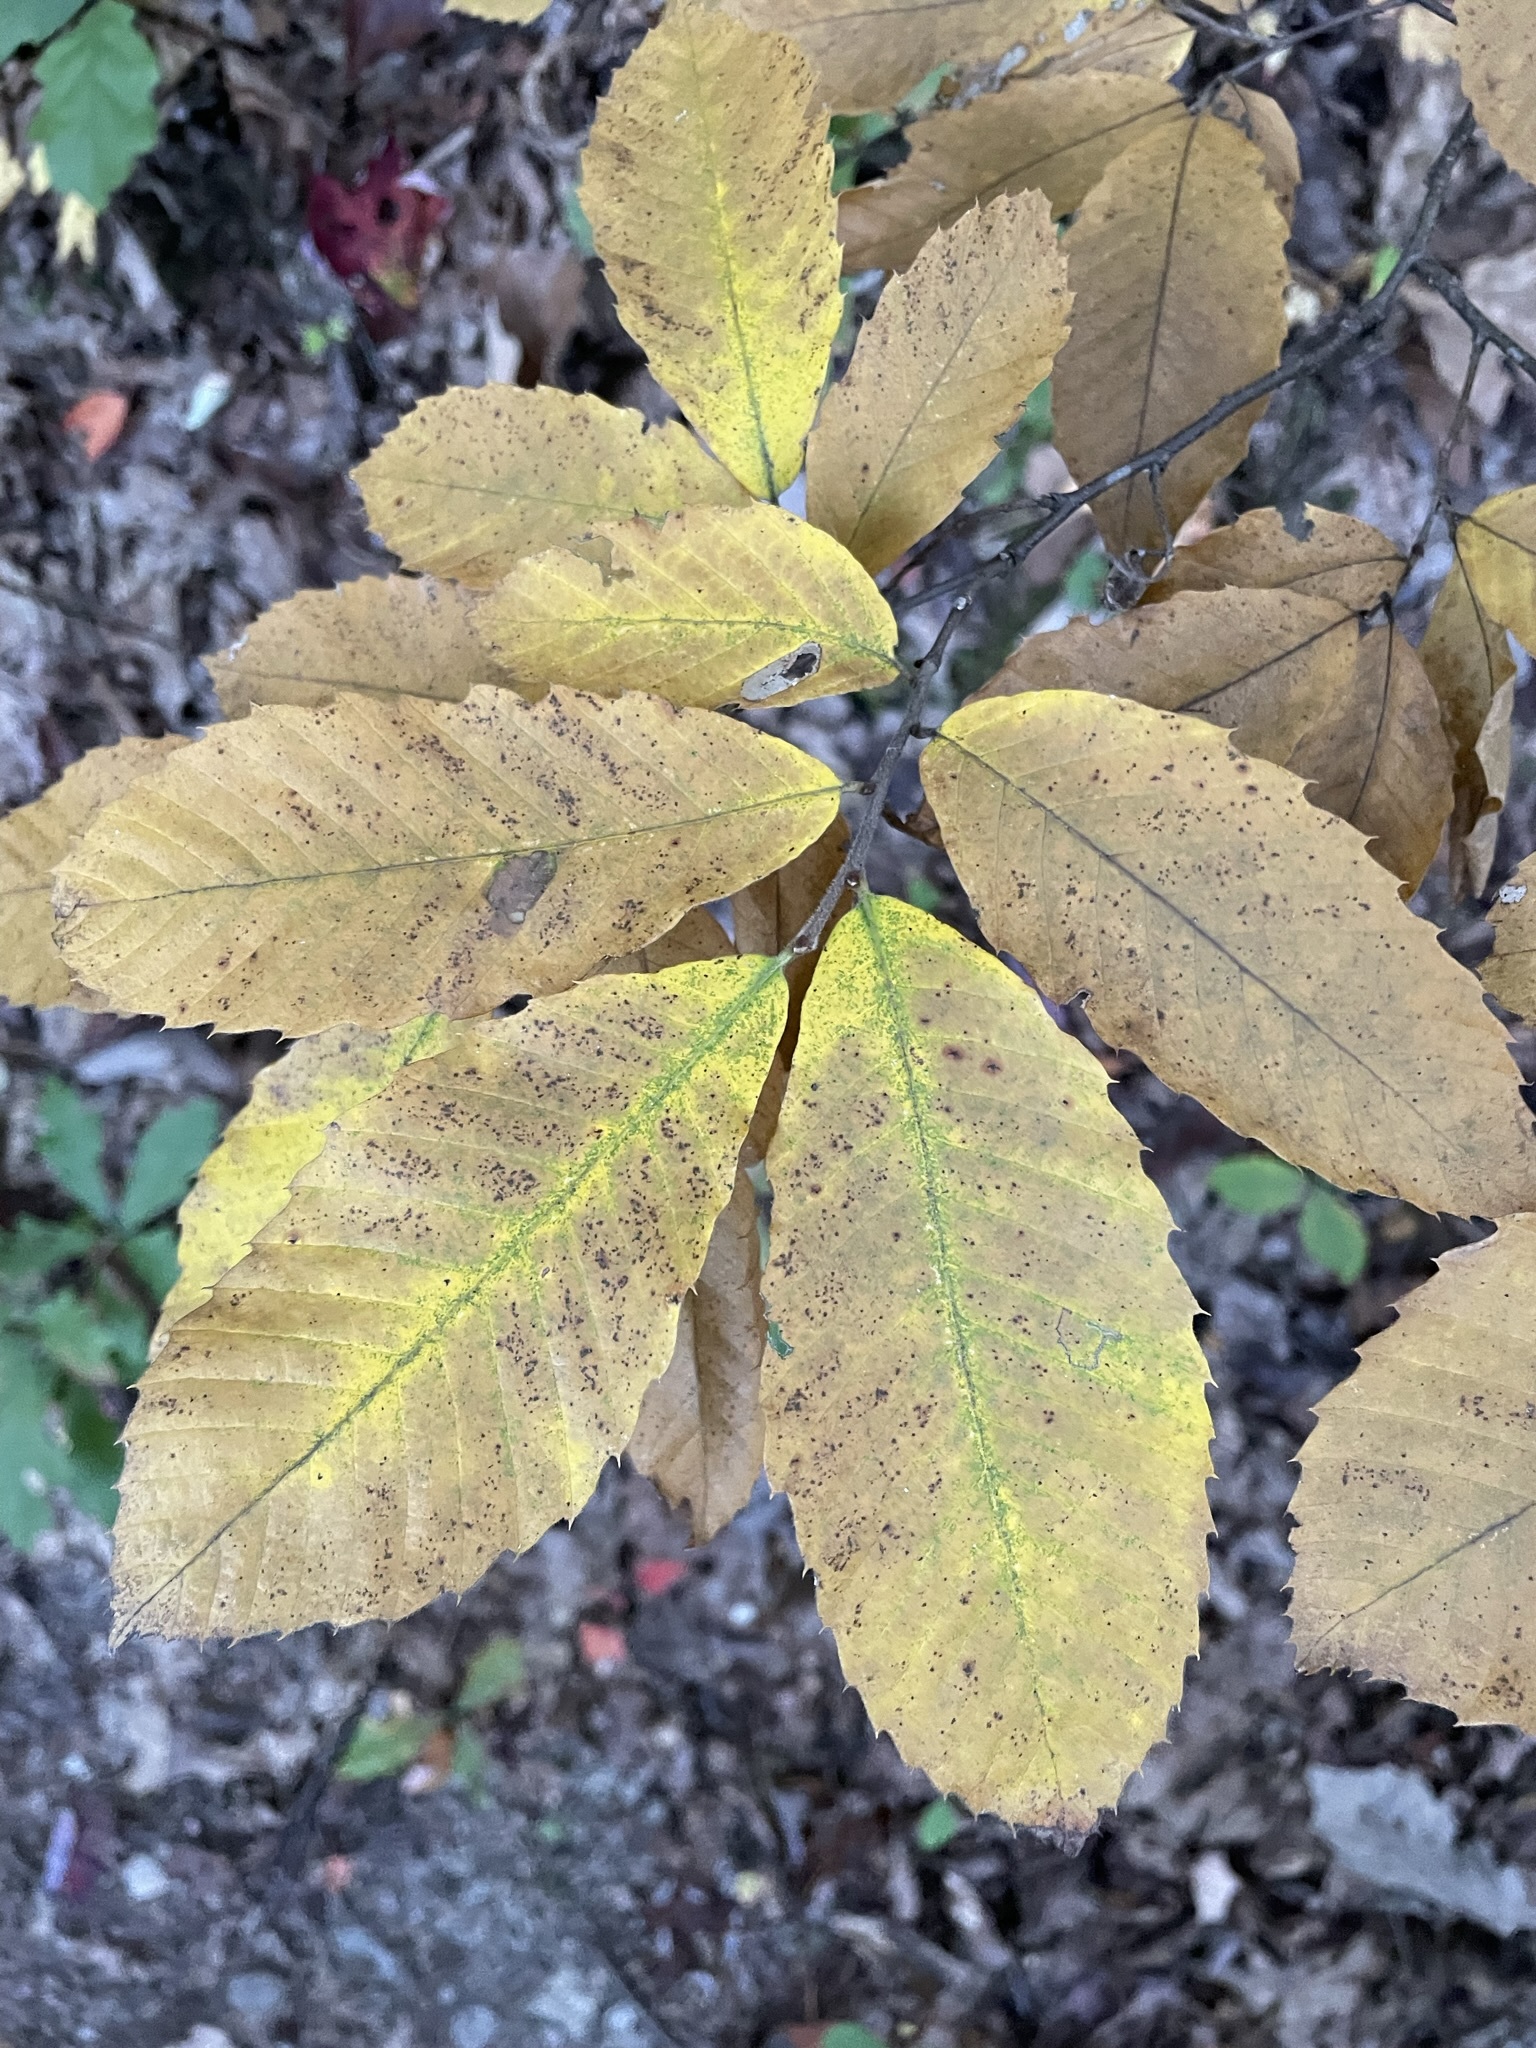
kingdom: Plantae
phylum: Tracheophyta
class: Magnoliopsida
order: Fagales
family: Fagaceae
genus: Castanea
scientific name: Castanea pumila
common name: Chinkapin
